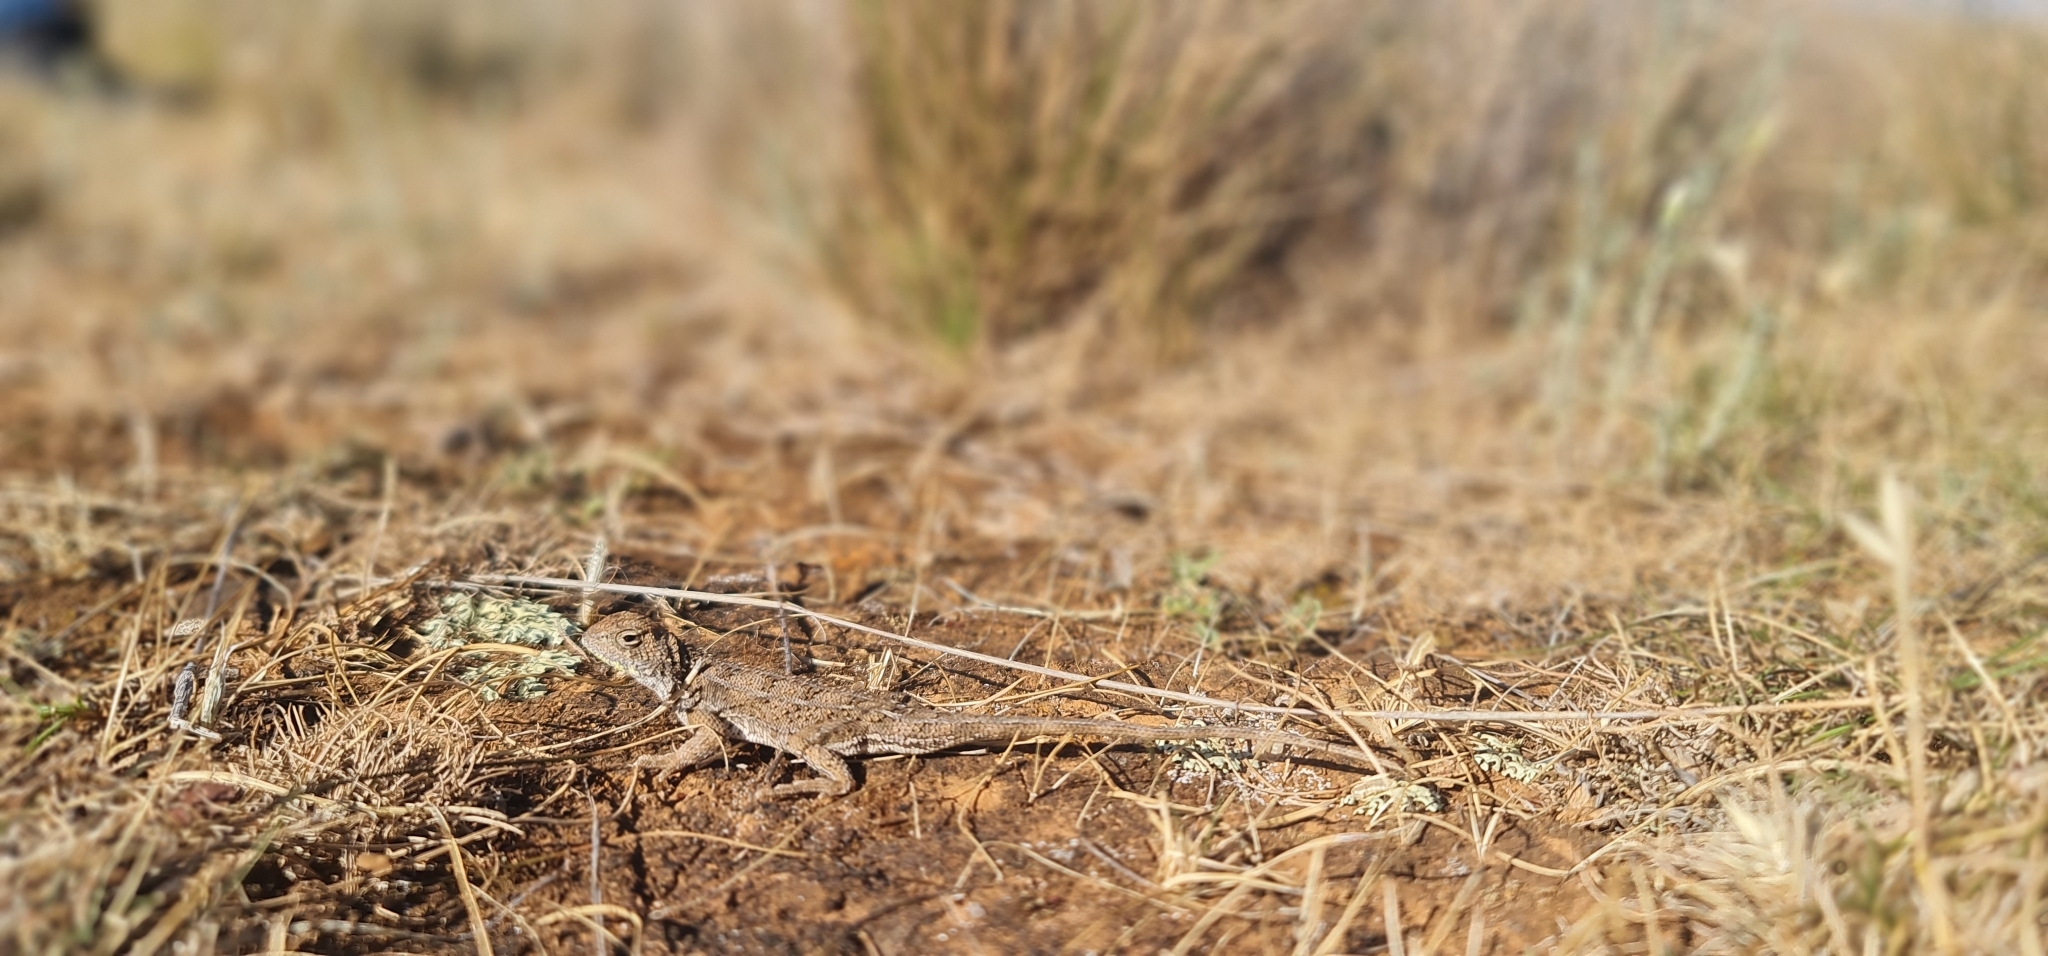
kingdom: Animalia
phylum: Chordata
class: Squamata
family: Agamidae
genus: Tympanocryptis
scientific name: Tympanocryptis petersi
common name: Lined earless dragon
